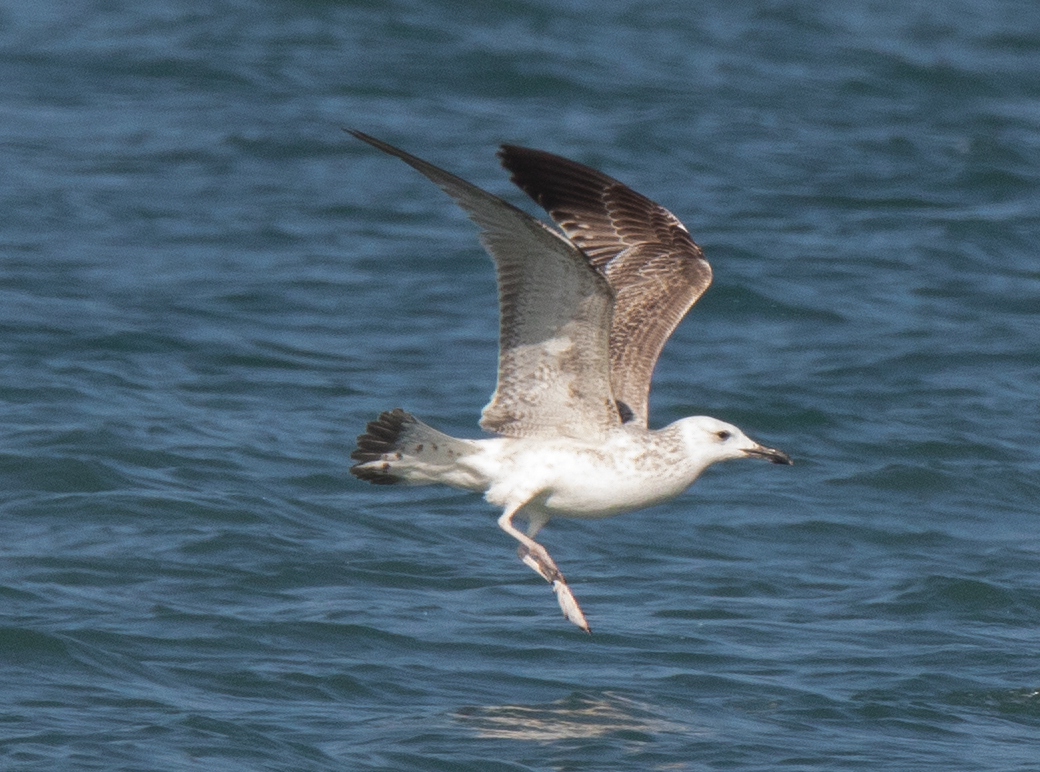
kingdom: Animalia
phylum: Chordata
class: Aves
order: Charadriiformes
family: Laridae
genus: Larus
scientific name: Larus cachinnans
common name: Caspian gull
